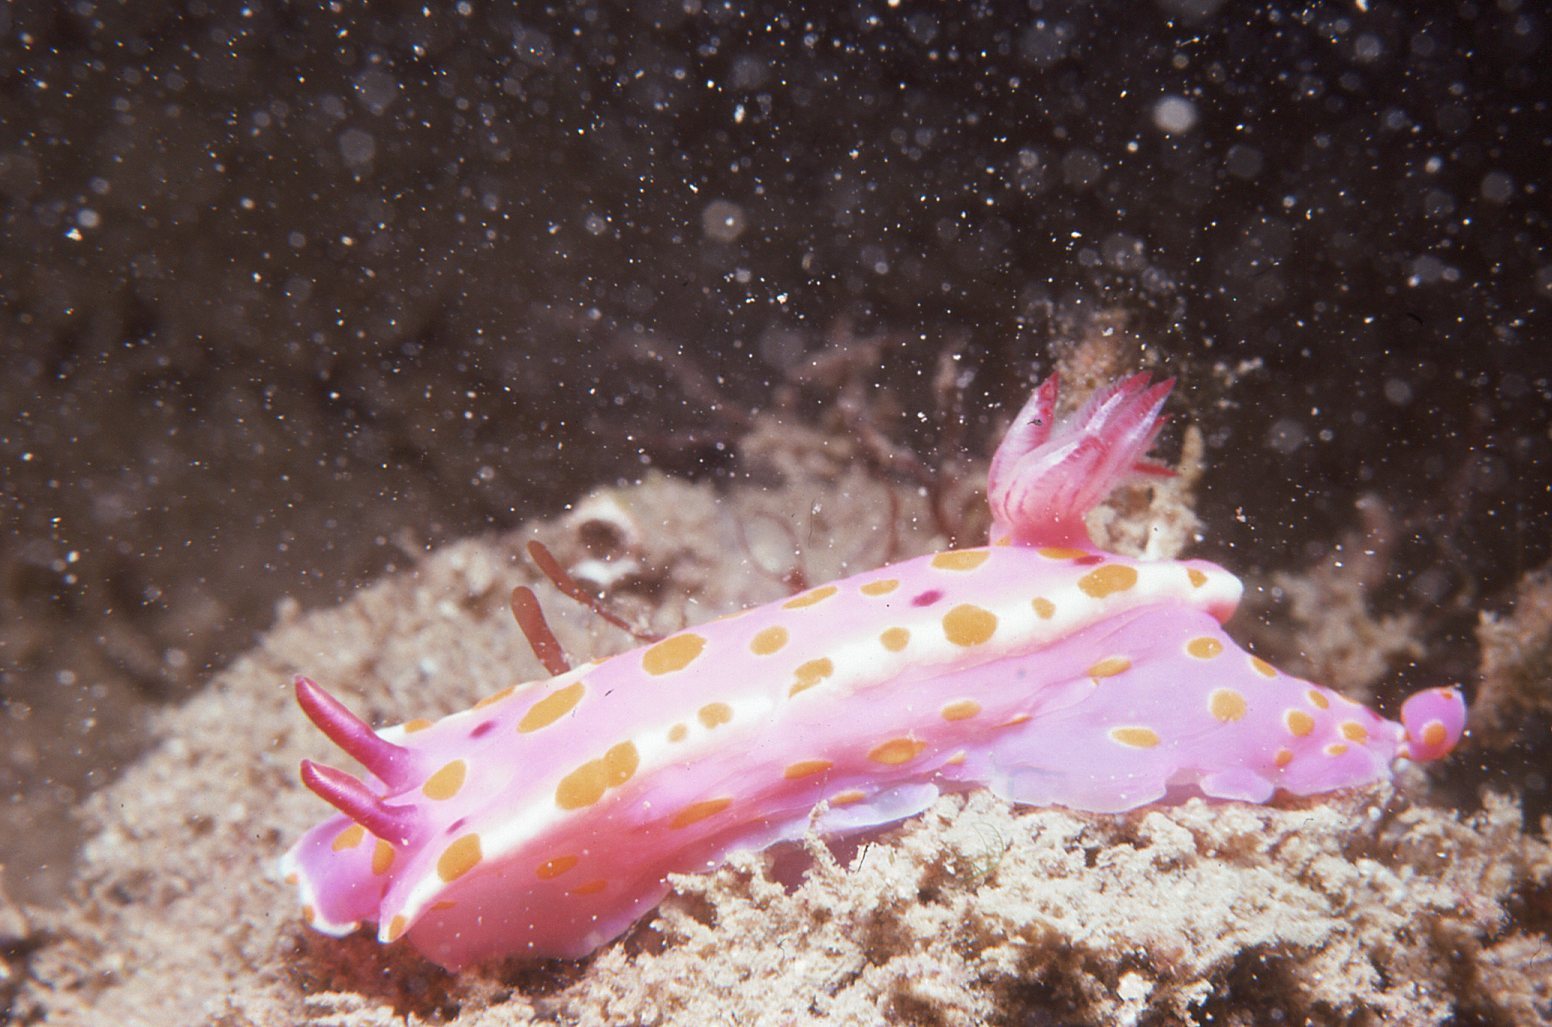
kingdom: Animalia
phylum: Mollusca
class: Gastropoda
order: Nudibranchia
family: Chromodorididae
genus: Ceratosoma
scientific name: Ceratosoma amoenum
